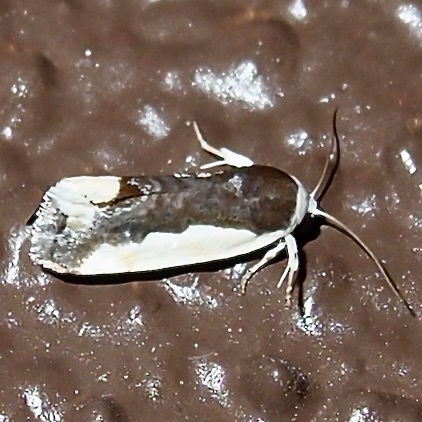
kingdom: Animalia
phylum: Arthropoda
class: Insecta
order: Lepidoptera
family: Noctuidae
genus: Acontia
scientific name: Acontia Tarache expolita
